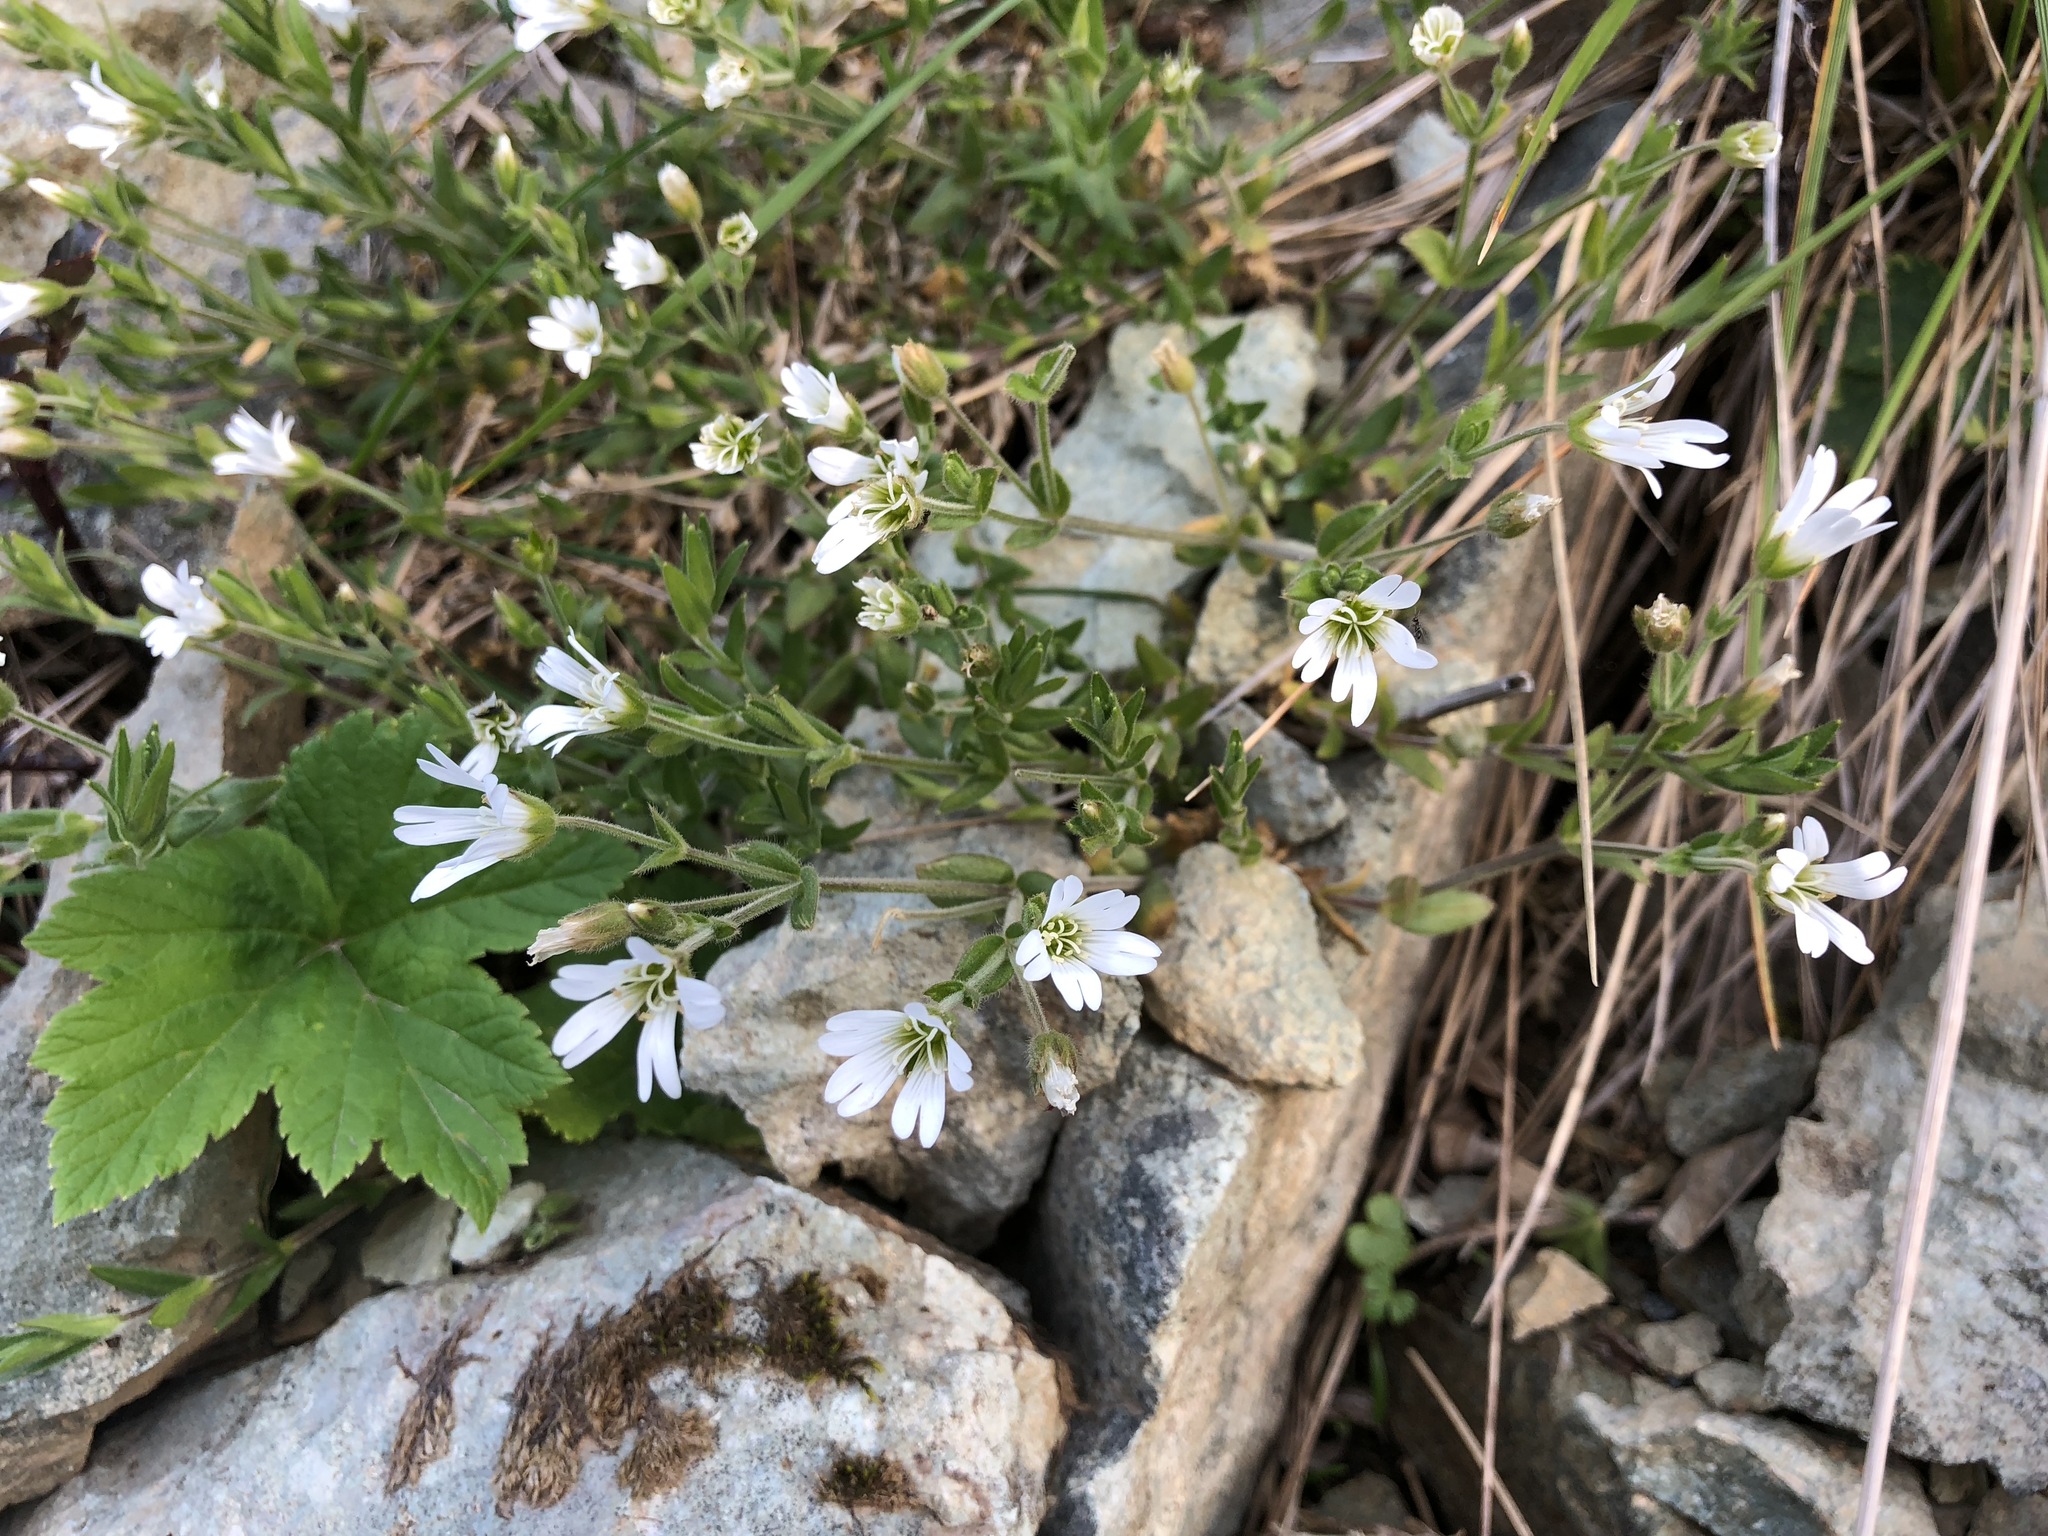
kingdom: Plantae
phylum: Tracheophyta
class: Magnoliopsida
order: Caryophyllales
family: Caryophyllaceae
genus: Cerastium
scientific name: Cerastium beeringianum
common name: Bering mouse-ear chickweed
